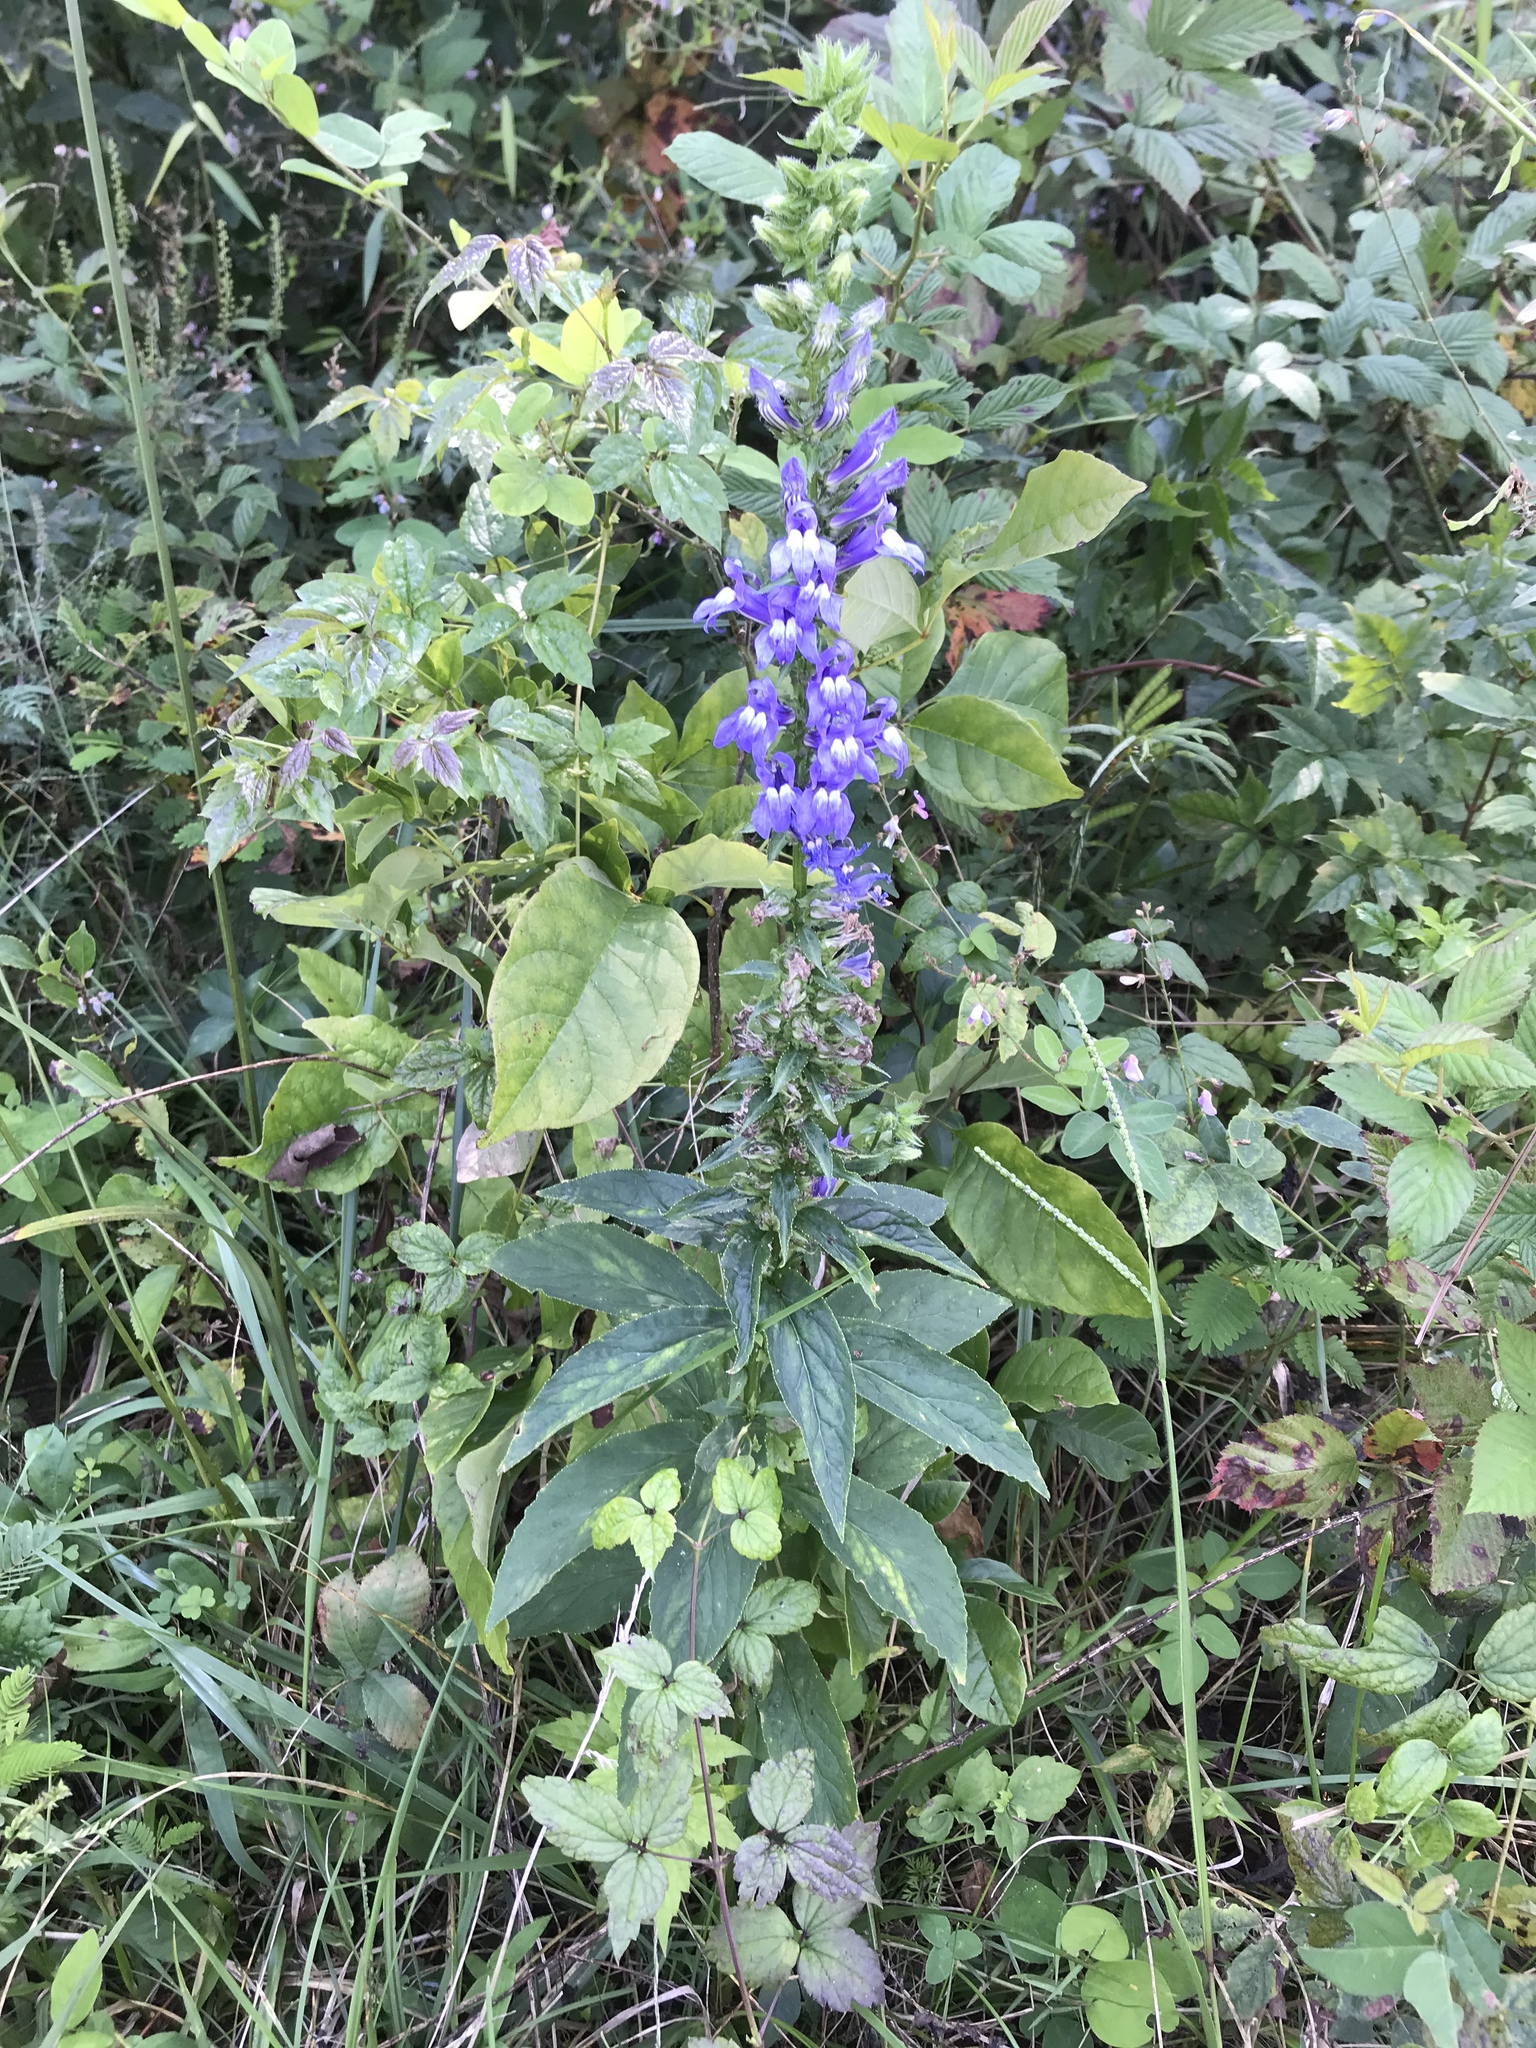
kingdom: Plantae
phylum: Tracheophyta
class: Magnoliopsida
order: Asterales
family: Campanulaceae
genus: Lobelia
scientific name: Lobelia siphilitica
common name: Great lobelia
